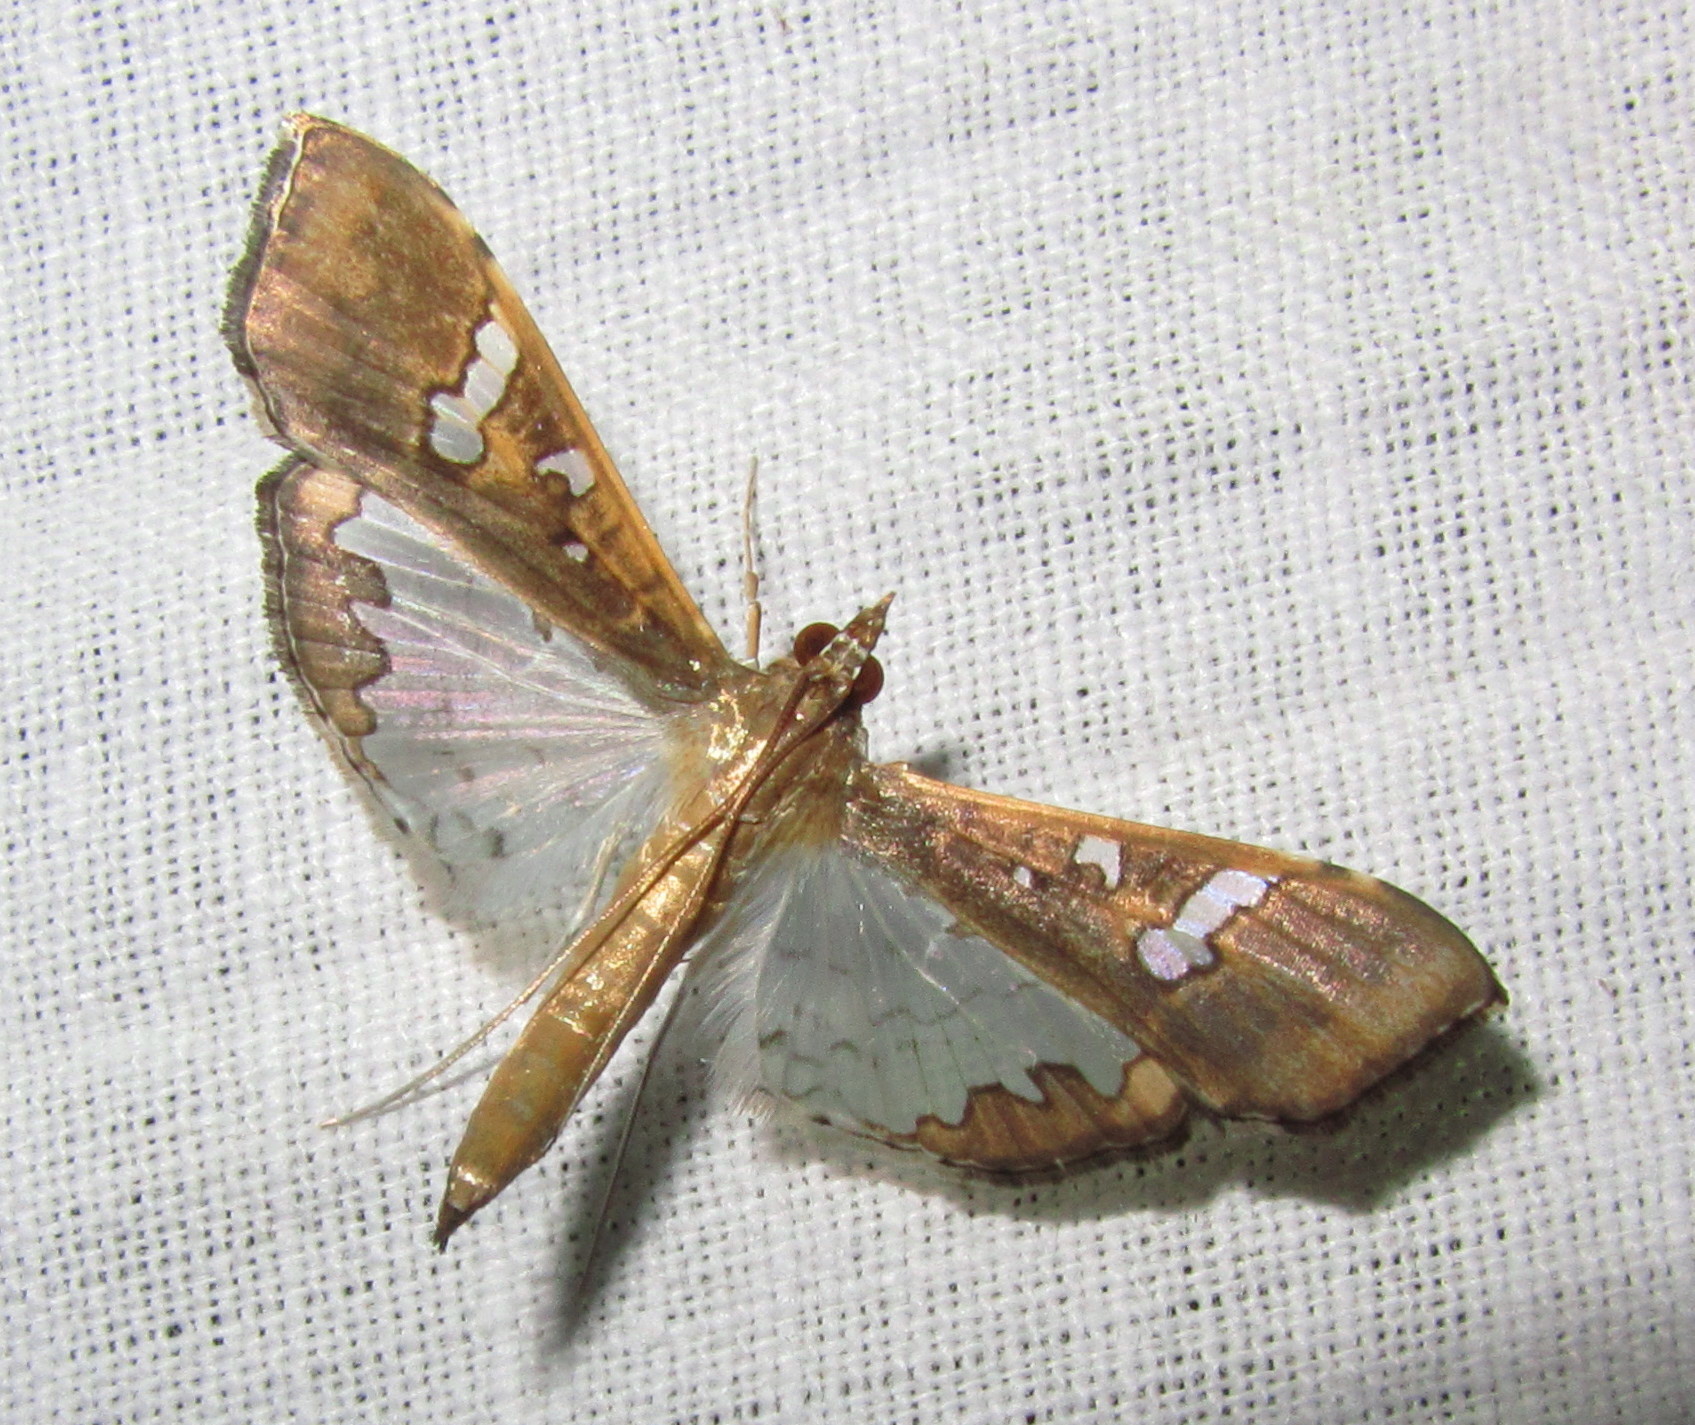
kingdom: Animalia
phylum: Arthropoda
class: Insecta
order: Lepidoptera
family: Crambidae
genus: Maruca
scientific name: Maruca vitrata
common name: Maruca pod borer
